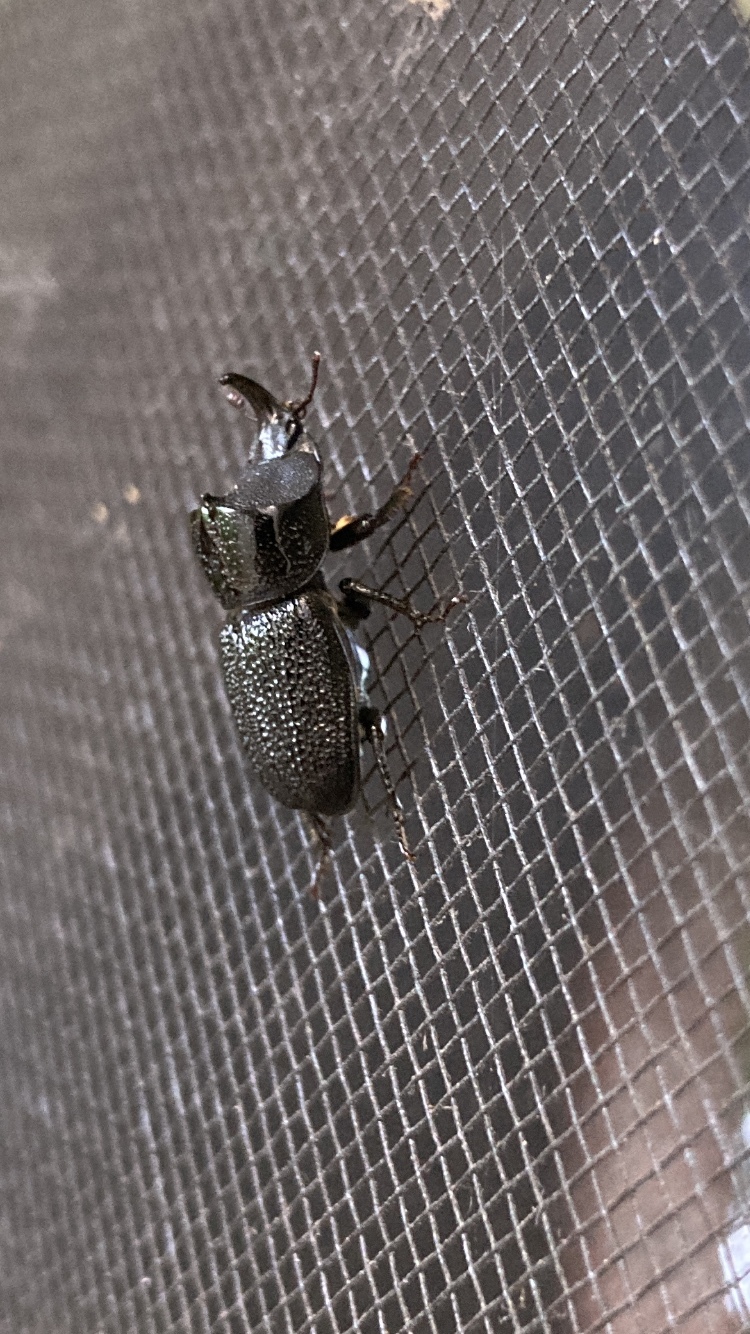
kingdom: Animalia
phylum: Arthropoda
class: Insecta
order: Coleoptera
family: Lucanidae
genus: Sinodendron
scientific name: Sinodendron rugosum
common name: Rugose stag beelte
